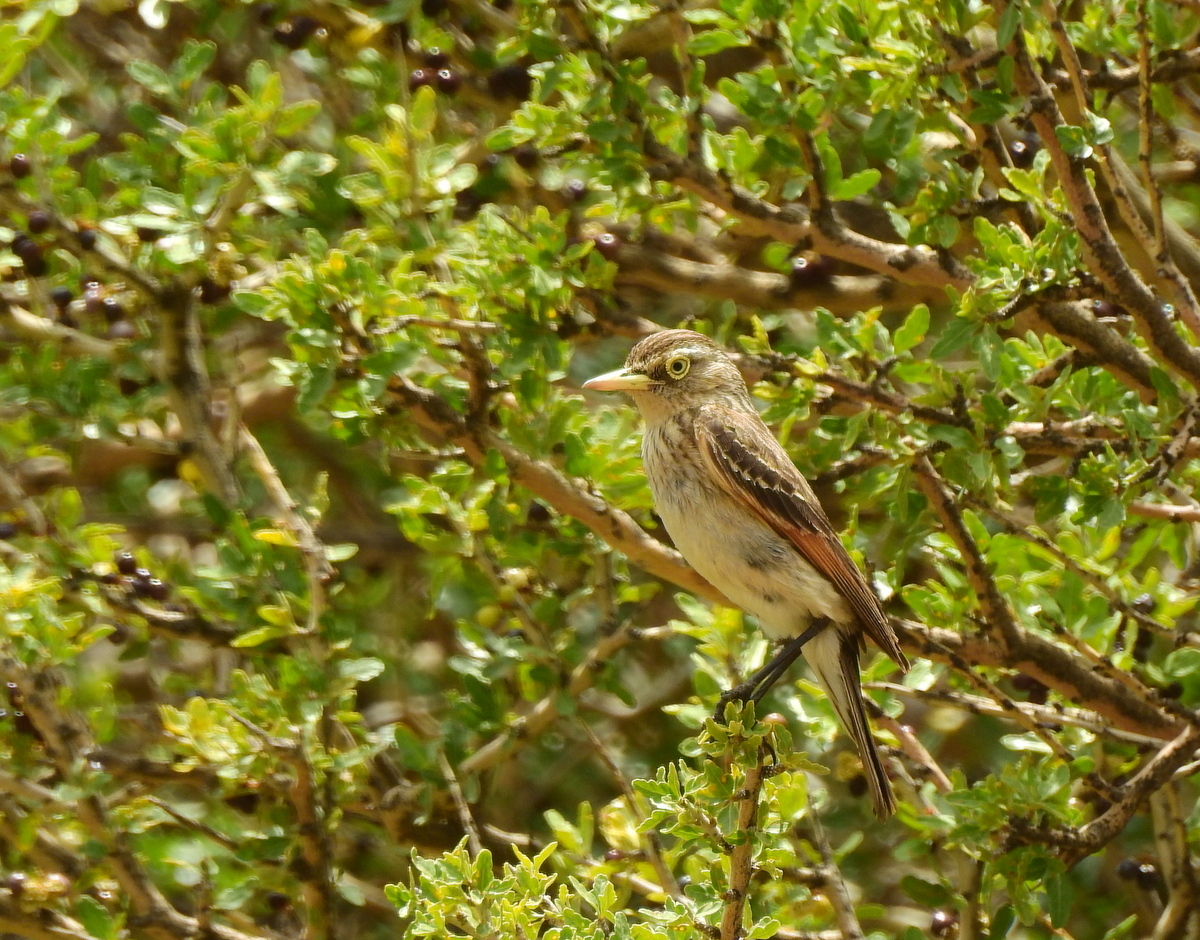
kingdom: Animalia
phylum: Chordata
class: Aves
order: Passeriformes
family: Tyrannidae
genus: Hymenops
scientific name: Hymenops perspicillatus
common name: Spectacled tyrant
